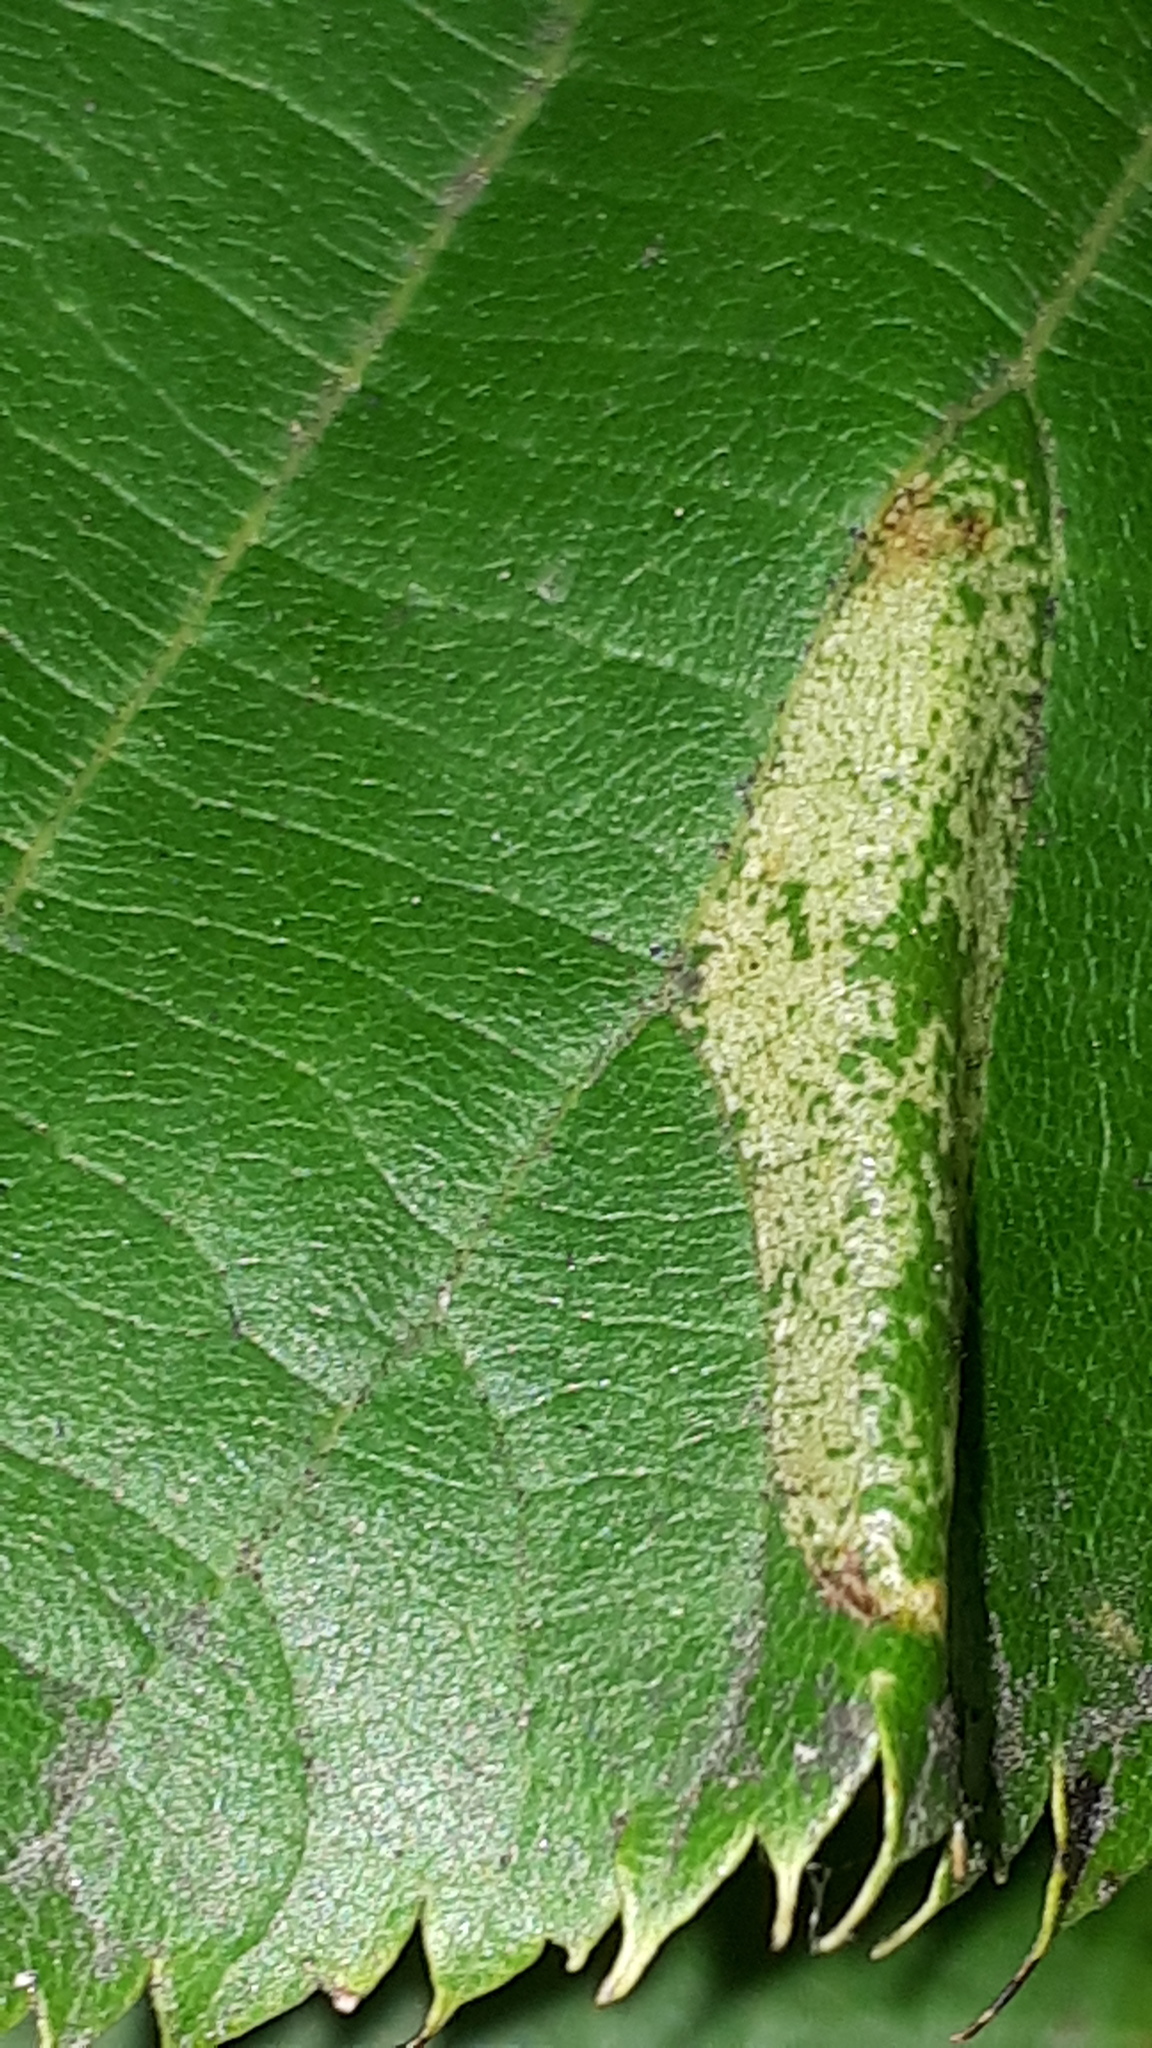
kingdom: Animalia
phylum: Arthropoda
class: Insecta
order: Lepidoptera
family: Gracillariidae
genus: Phyllonorycter
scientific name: Phyllonorycter issikii
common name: Linden midget
